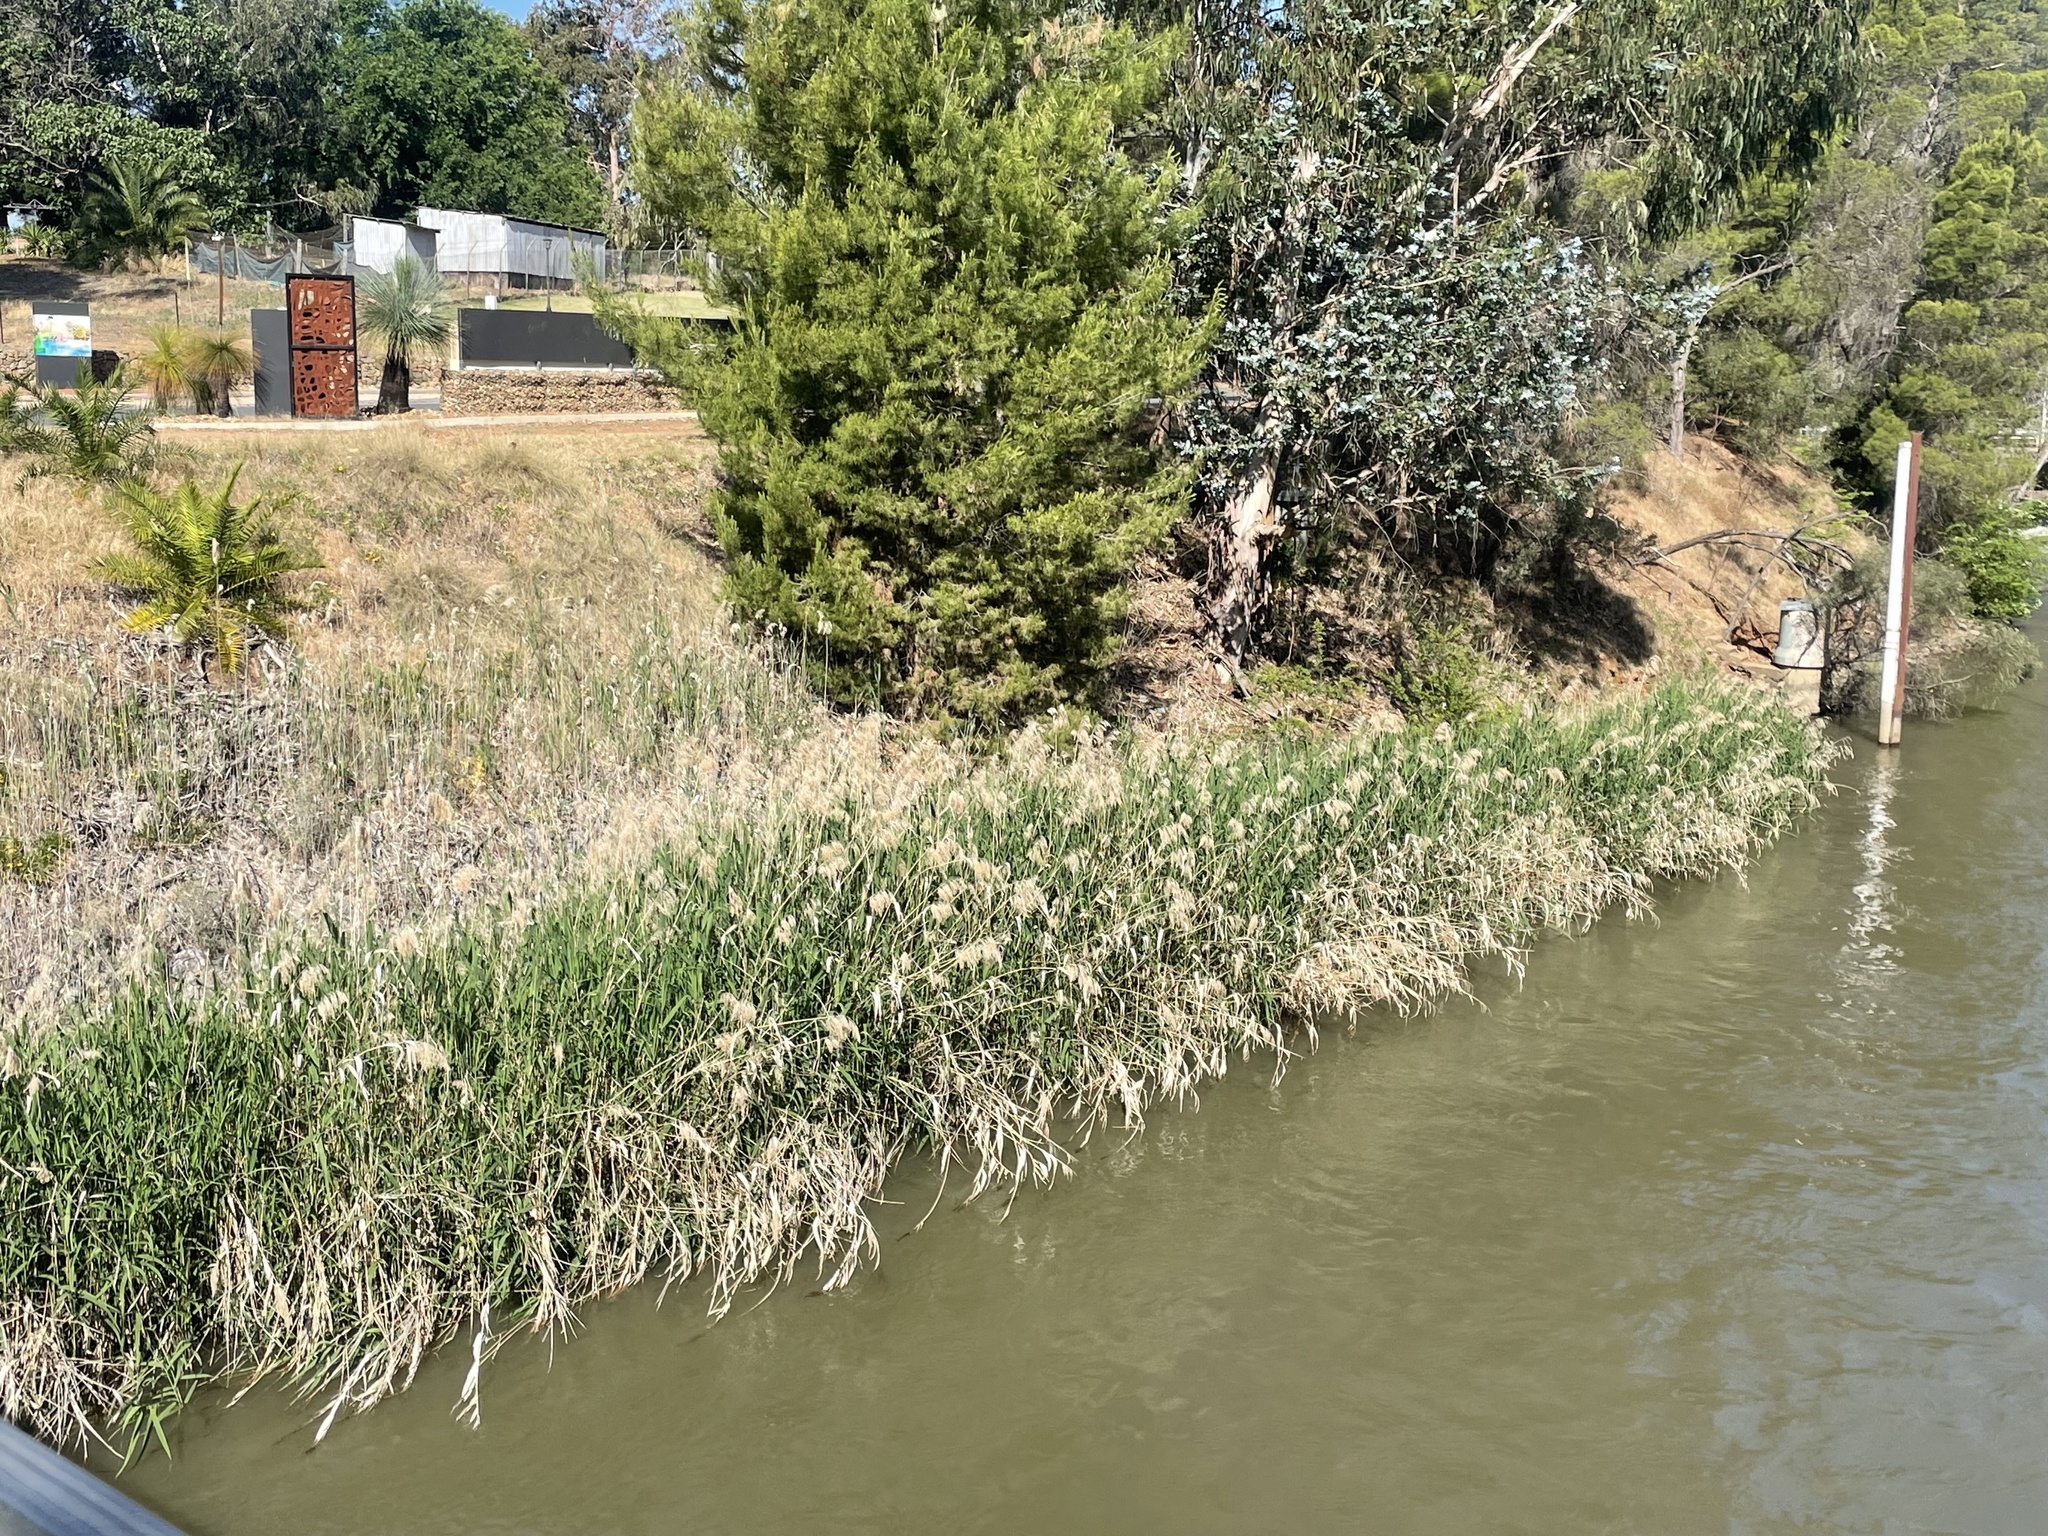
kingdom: Plantae
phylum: Tracheophyta
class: Liliopsida
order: Poales
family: Poaceae
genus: Phragmites
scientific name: Phragmites australis
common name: Common reed
